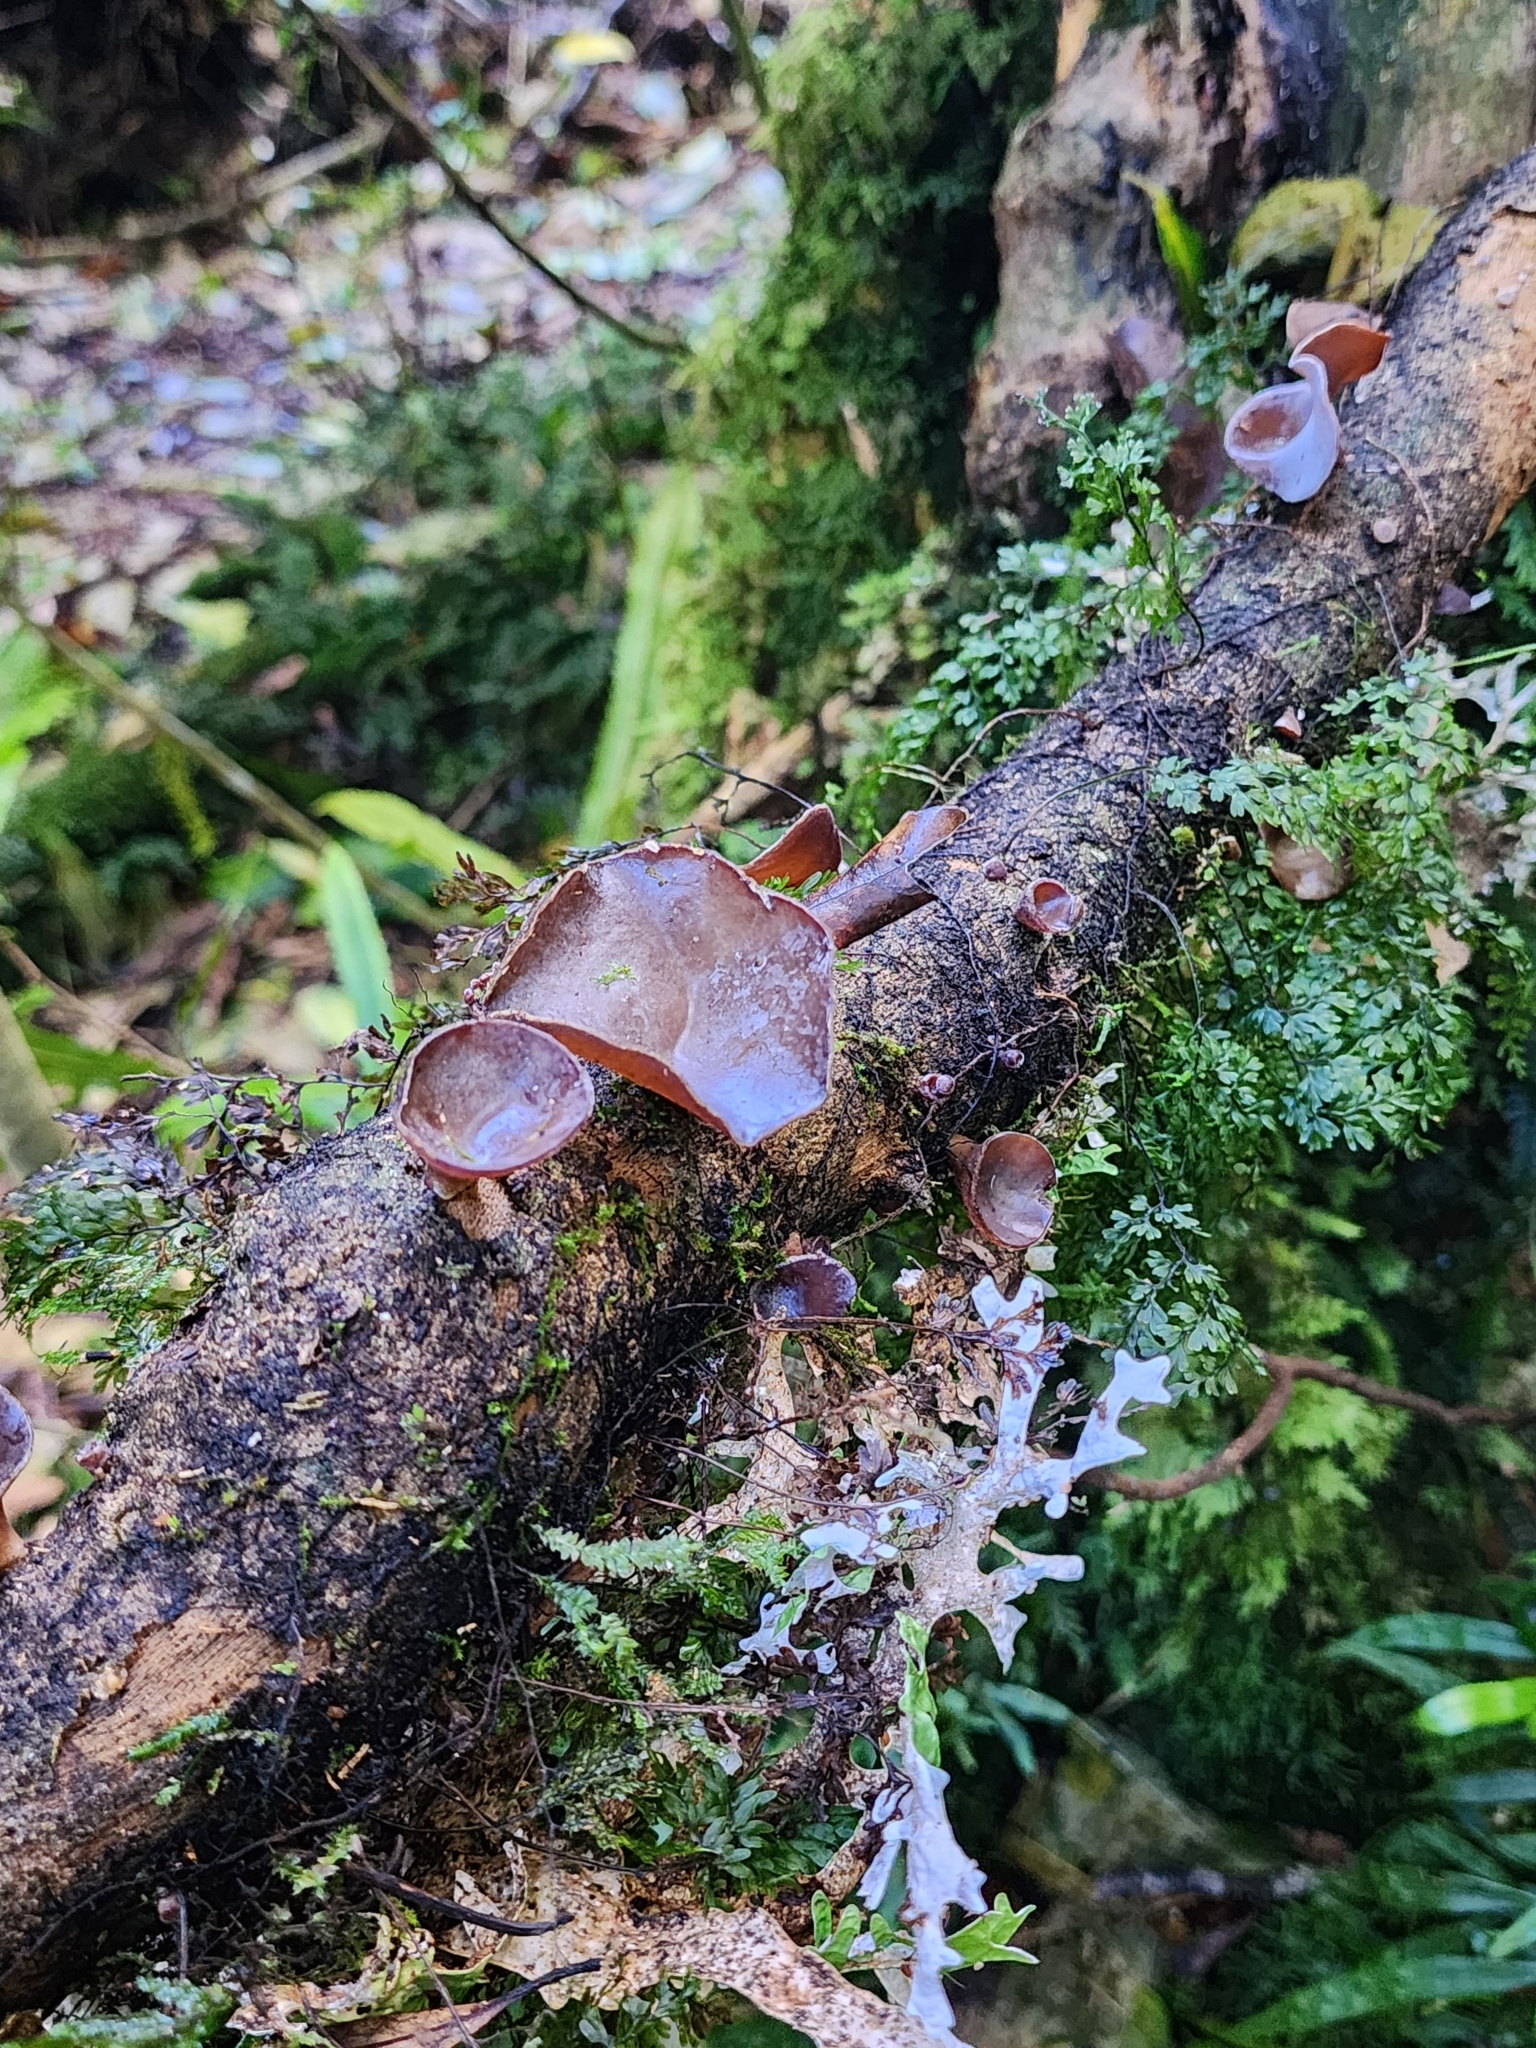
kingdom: Fungi
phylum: Basidiomycota
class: Agaricomycetes
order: Auriculariales
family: Auriculariaceae
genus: Auricularia
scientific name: Auricularia cornea
